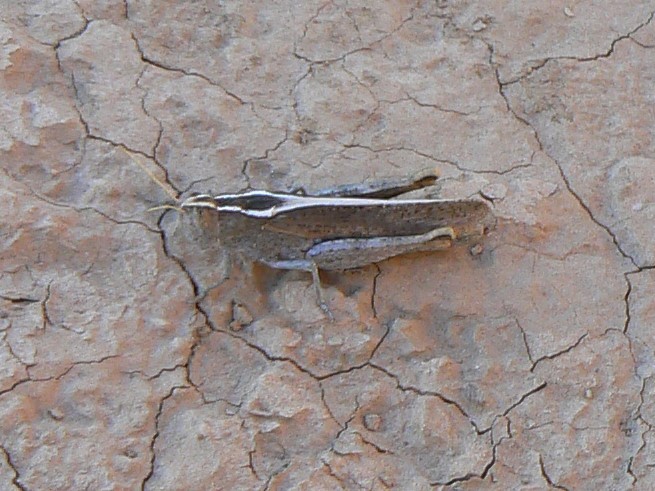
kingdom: Animalia
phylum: Arthropoda
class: Insecta
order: Orthoptera
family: Acrididae
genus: Apotropis
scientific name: Apotropis vittata
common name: Common striped grasshopper
